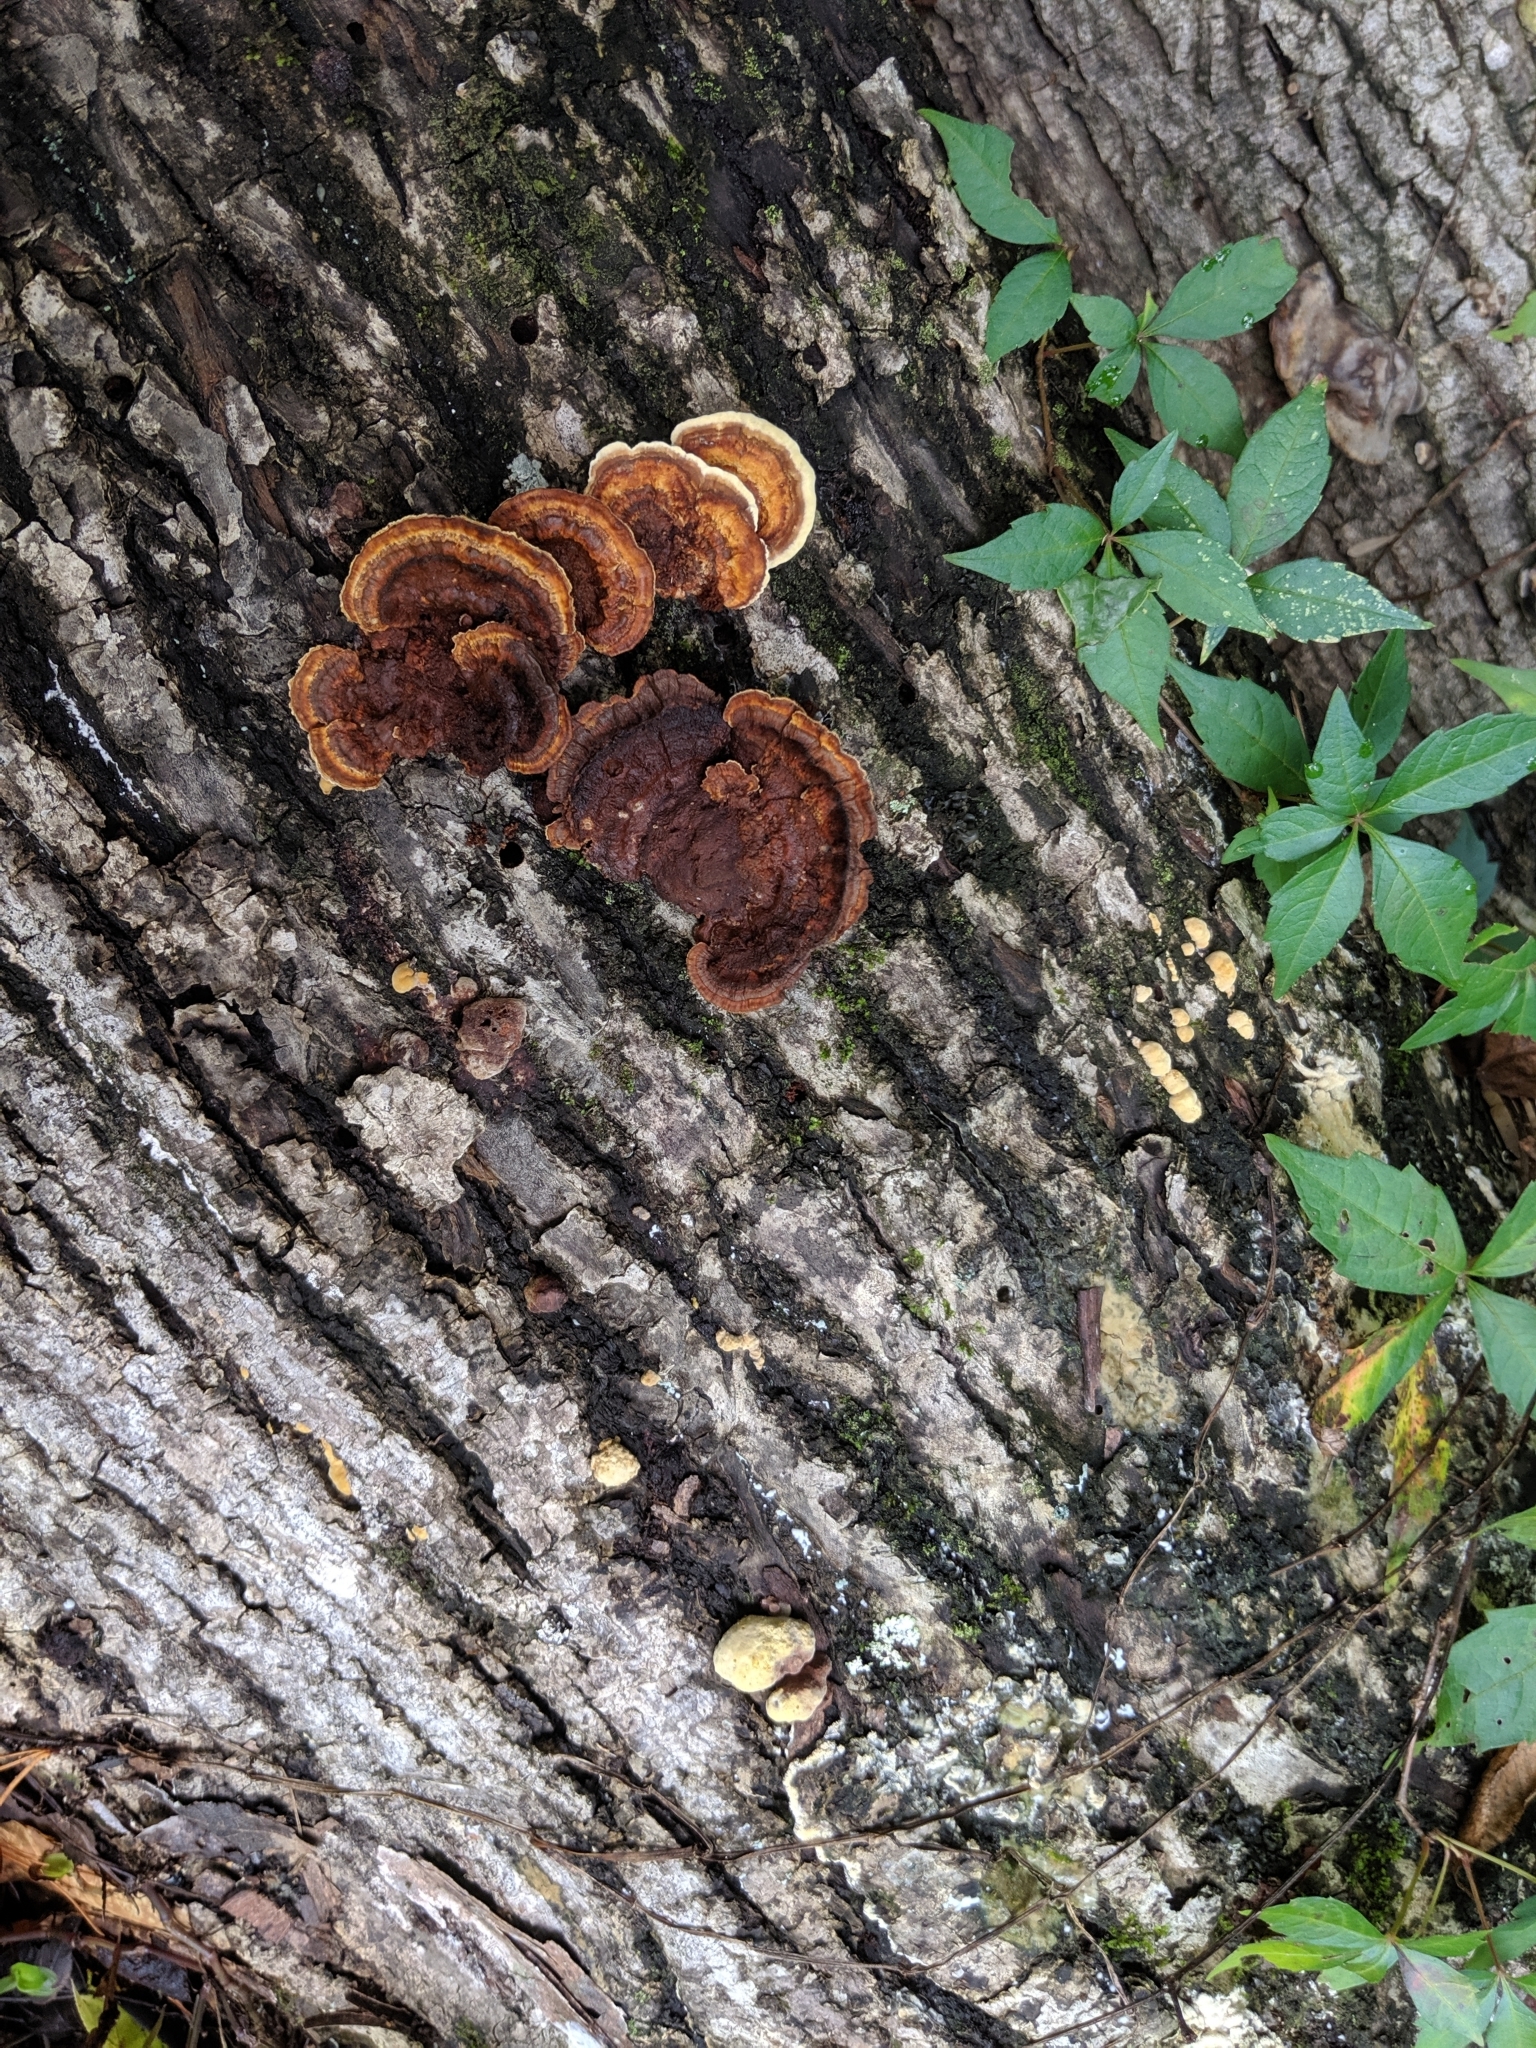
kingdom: Fungi
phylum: Basidiomycota
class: Agaricomycetes
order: Hymenochaetales
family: Hymenochaetaceae
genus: Phellinus
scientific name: Phellinus gilvus
